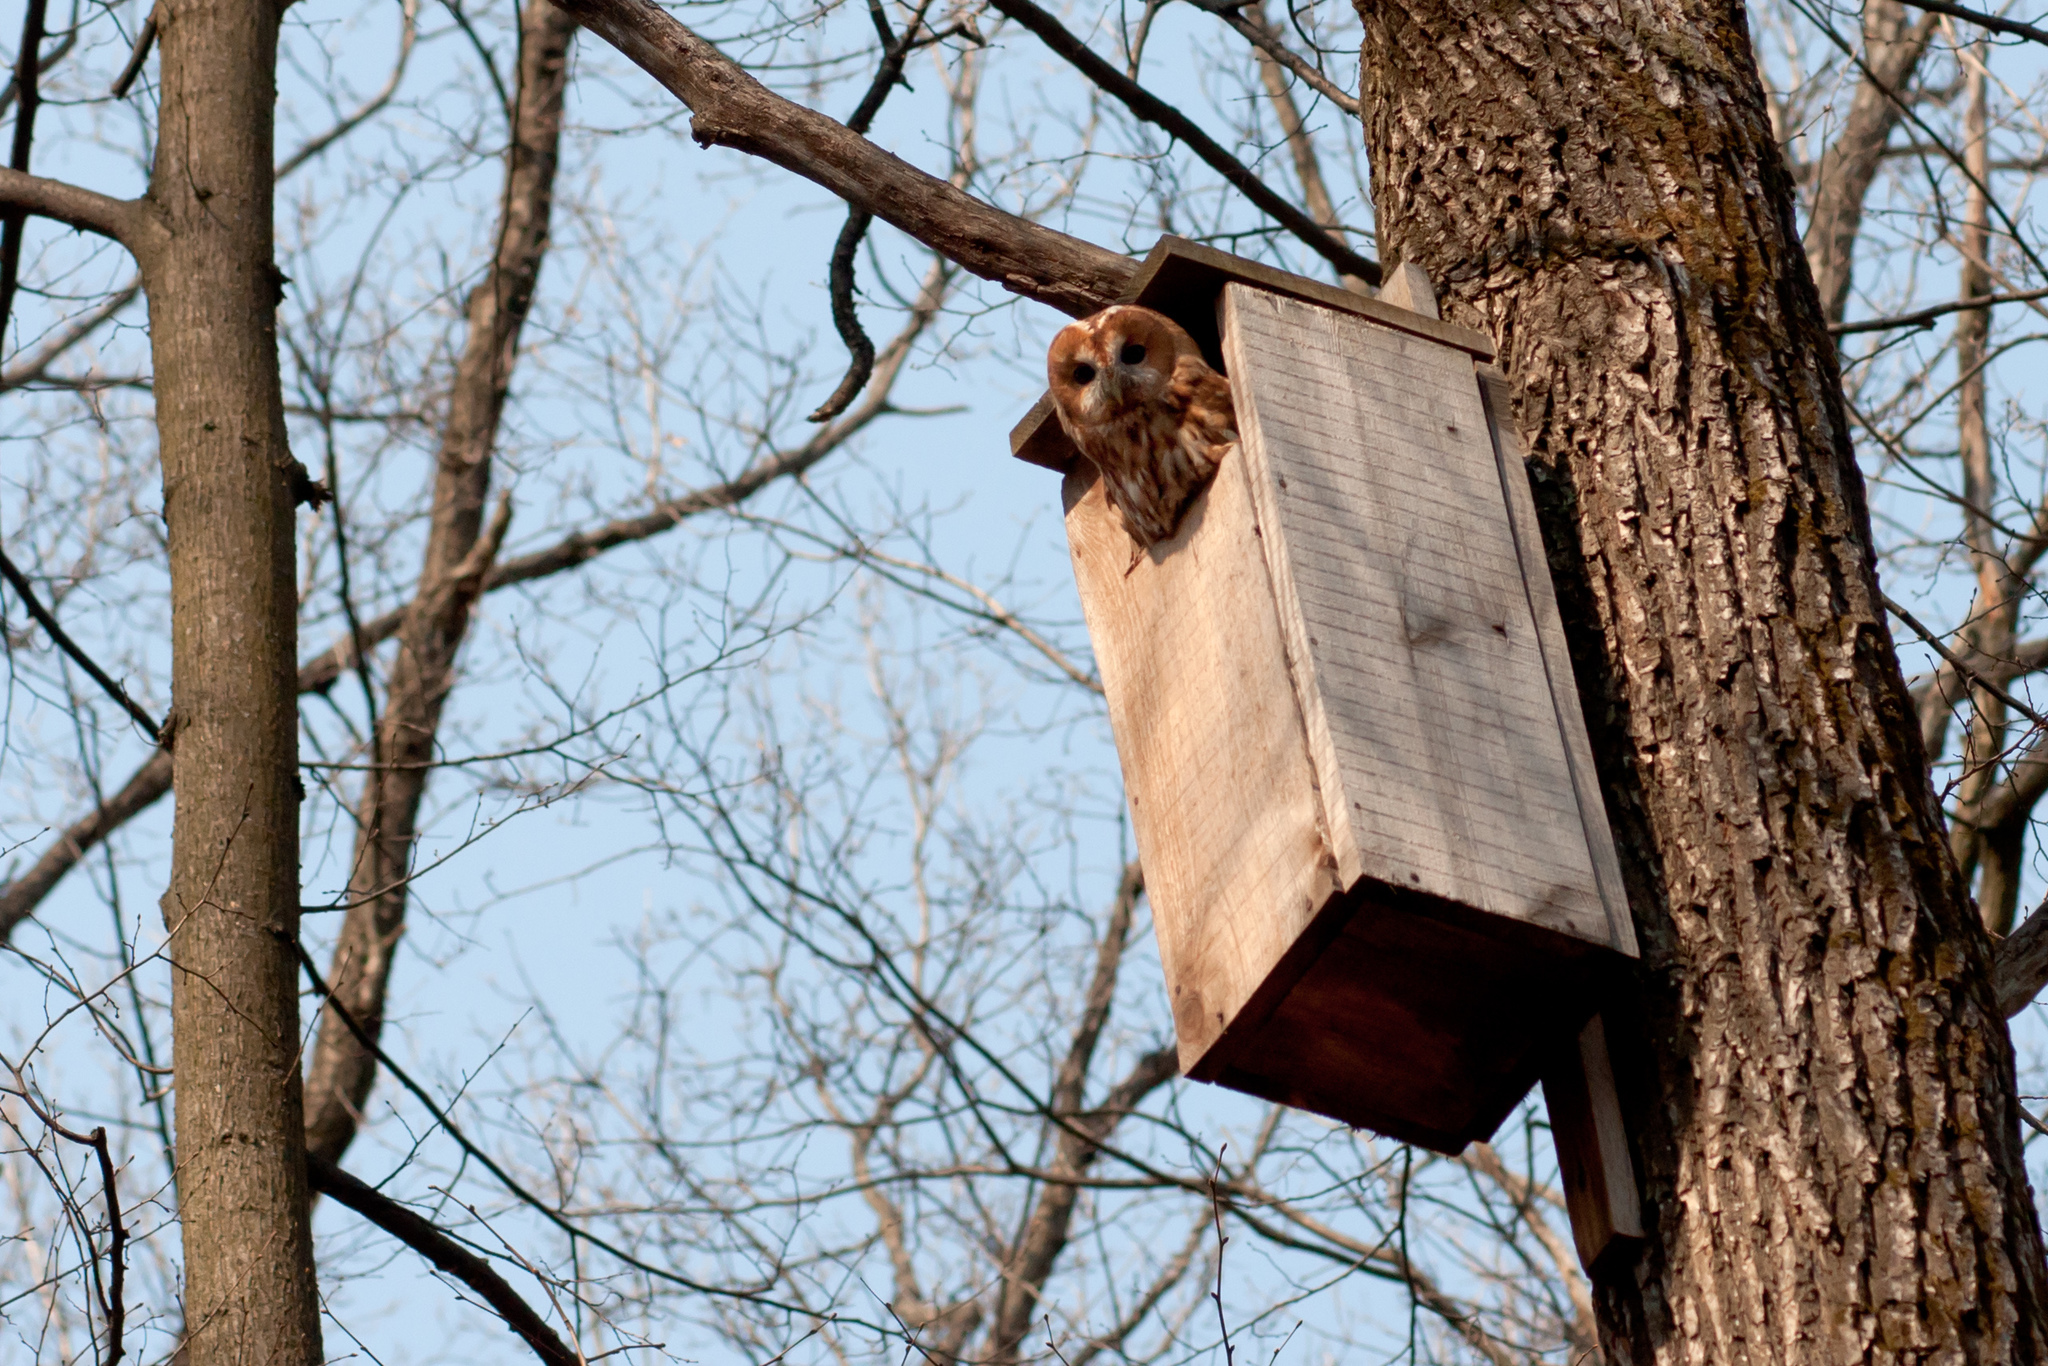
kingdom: Animalia
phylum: Chordata
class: Aves
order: Strigiformes
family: Strigidae
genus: Strix
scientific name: Strix aluco
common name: Tawny owl
